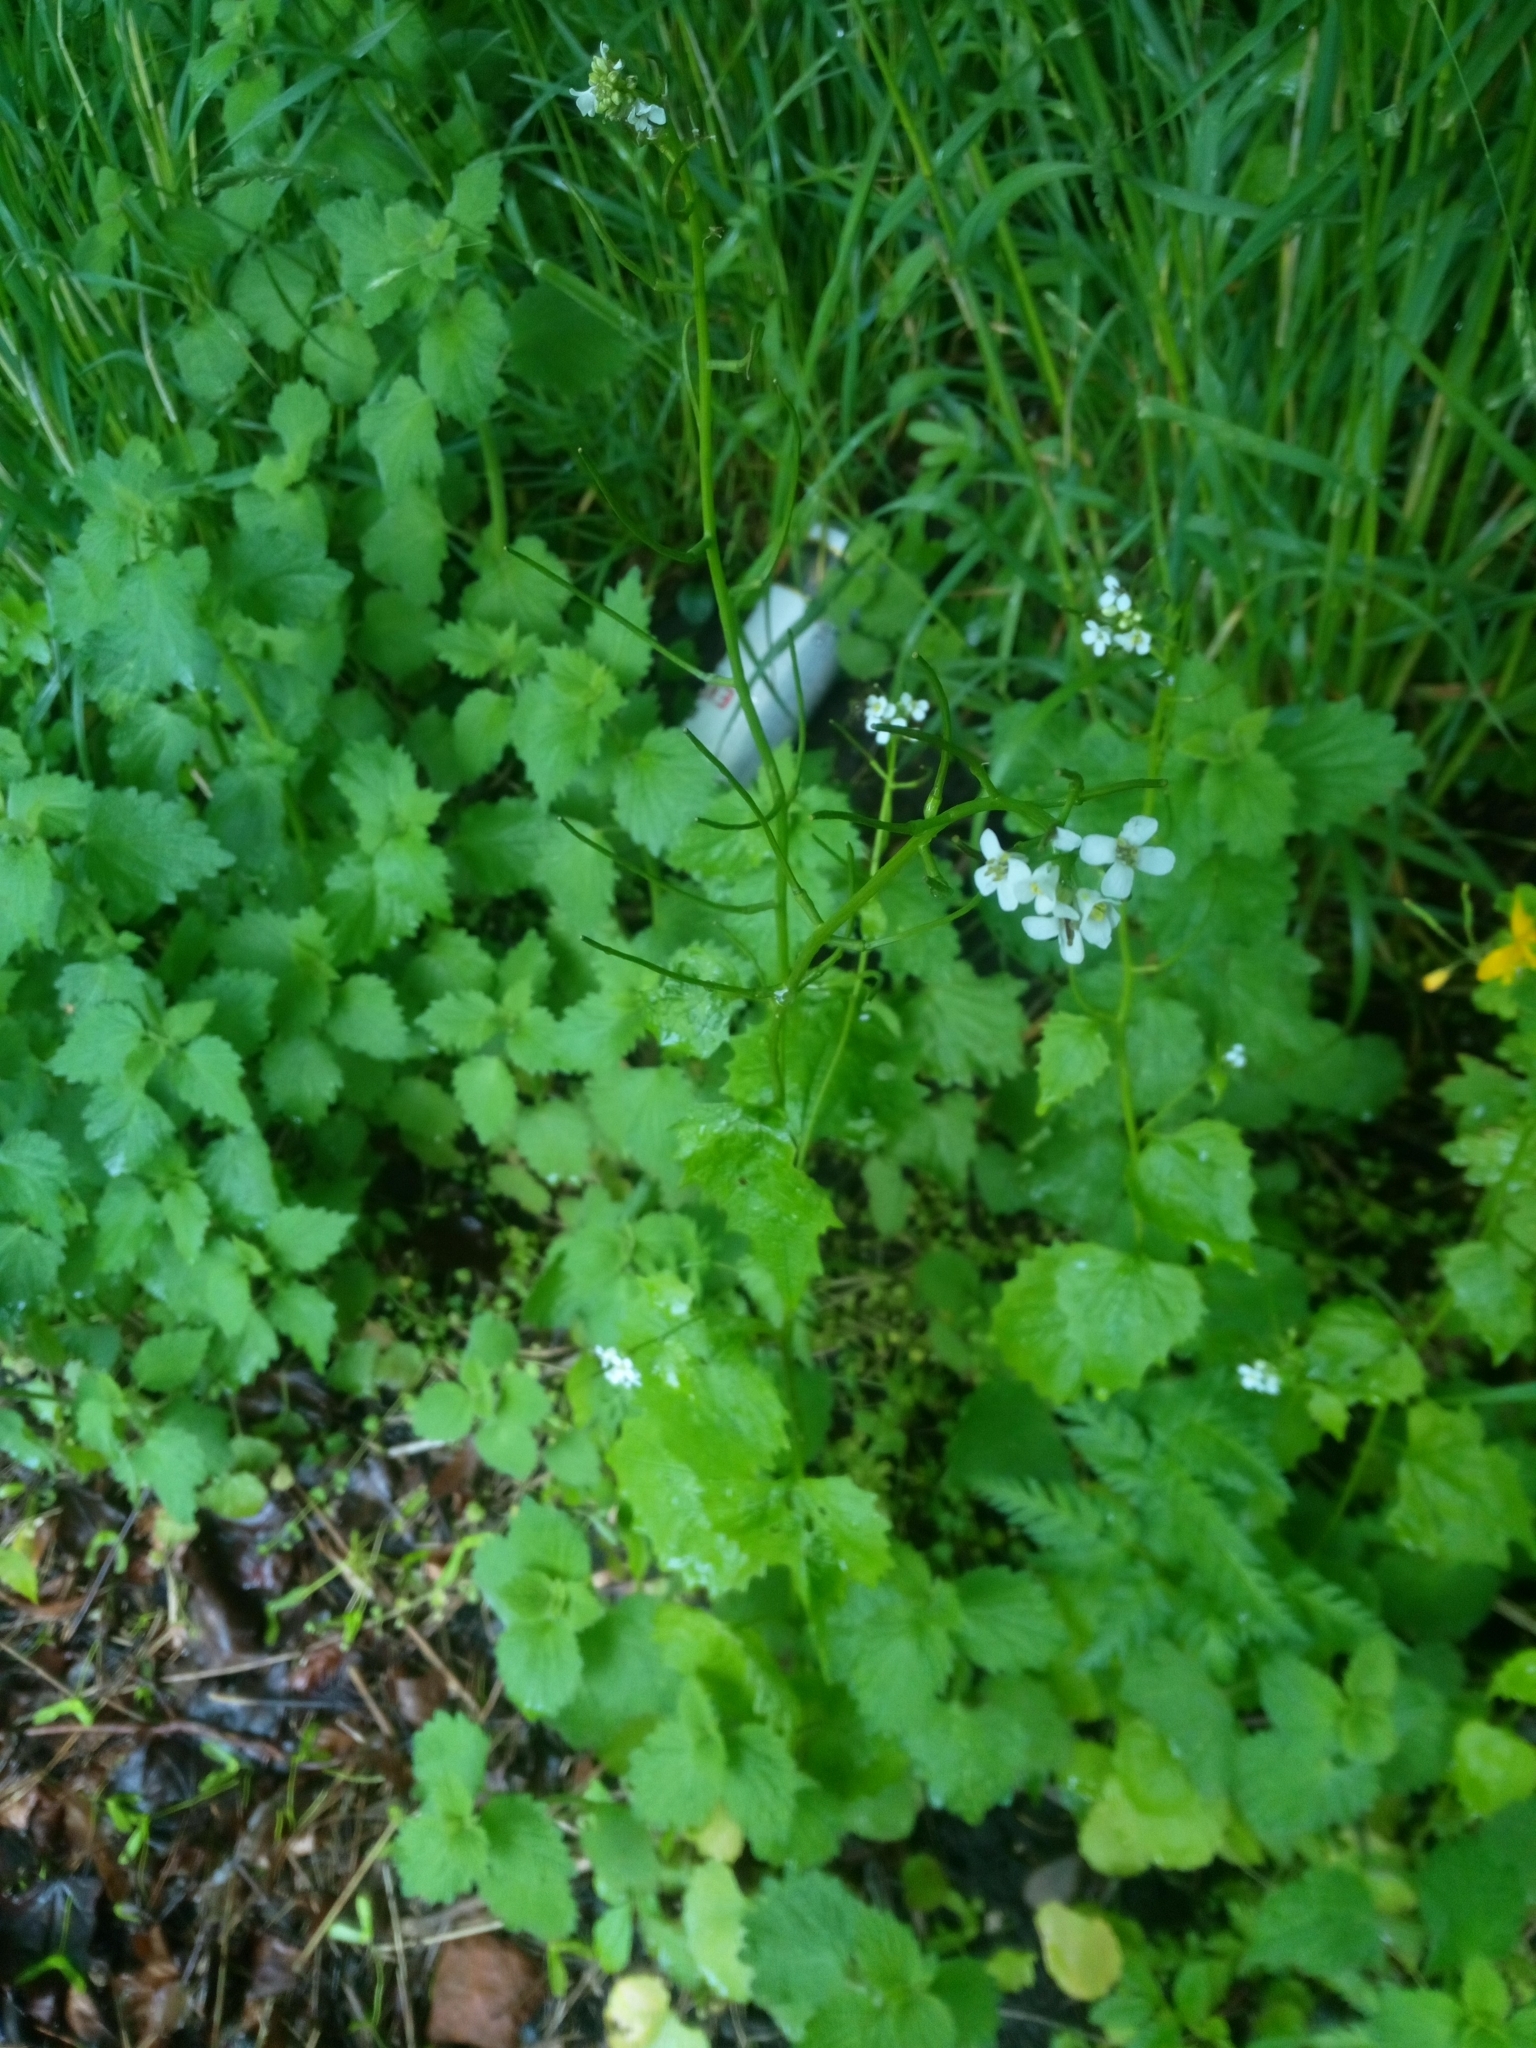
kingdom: Plantae
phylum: Tracheophyta
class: Magnoliopsida
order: Brassicales
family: Brassicaceae
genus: Alliaria
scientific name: Alliaria petiolata
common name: Garlic mustard
